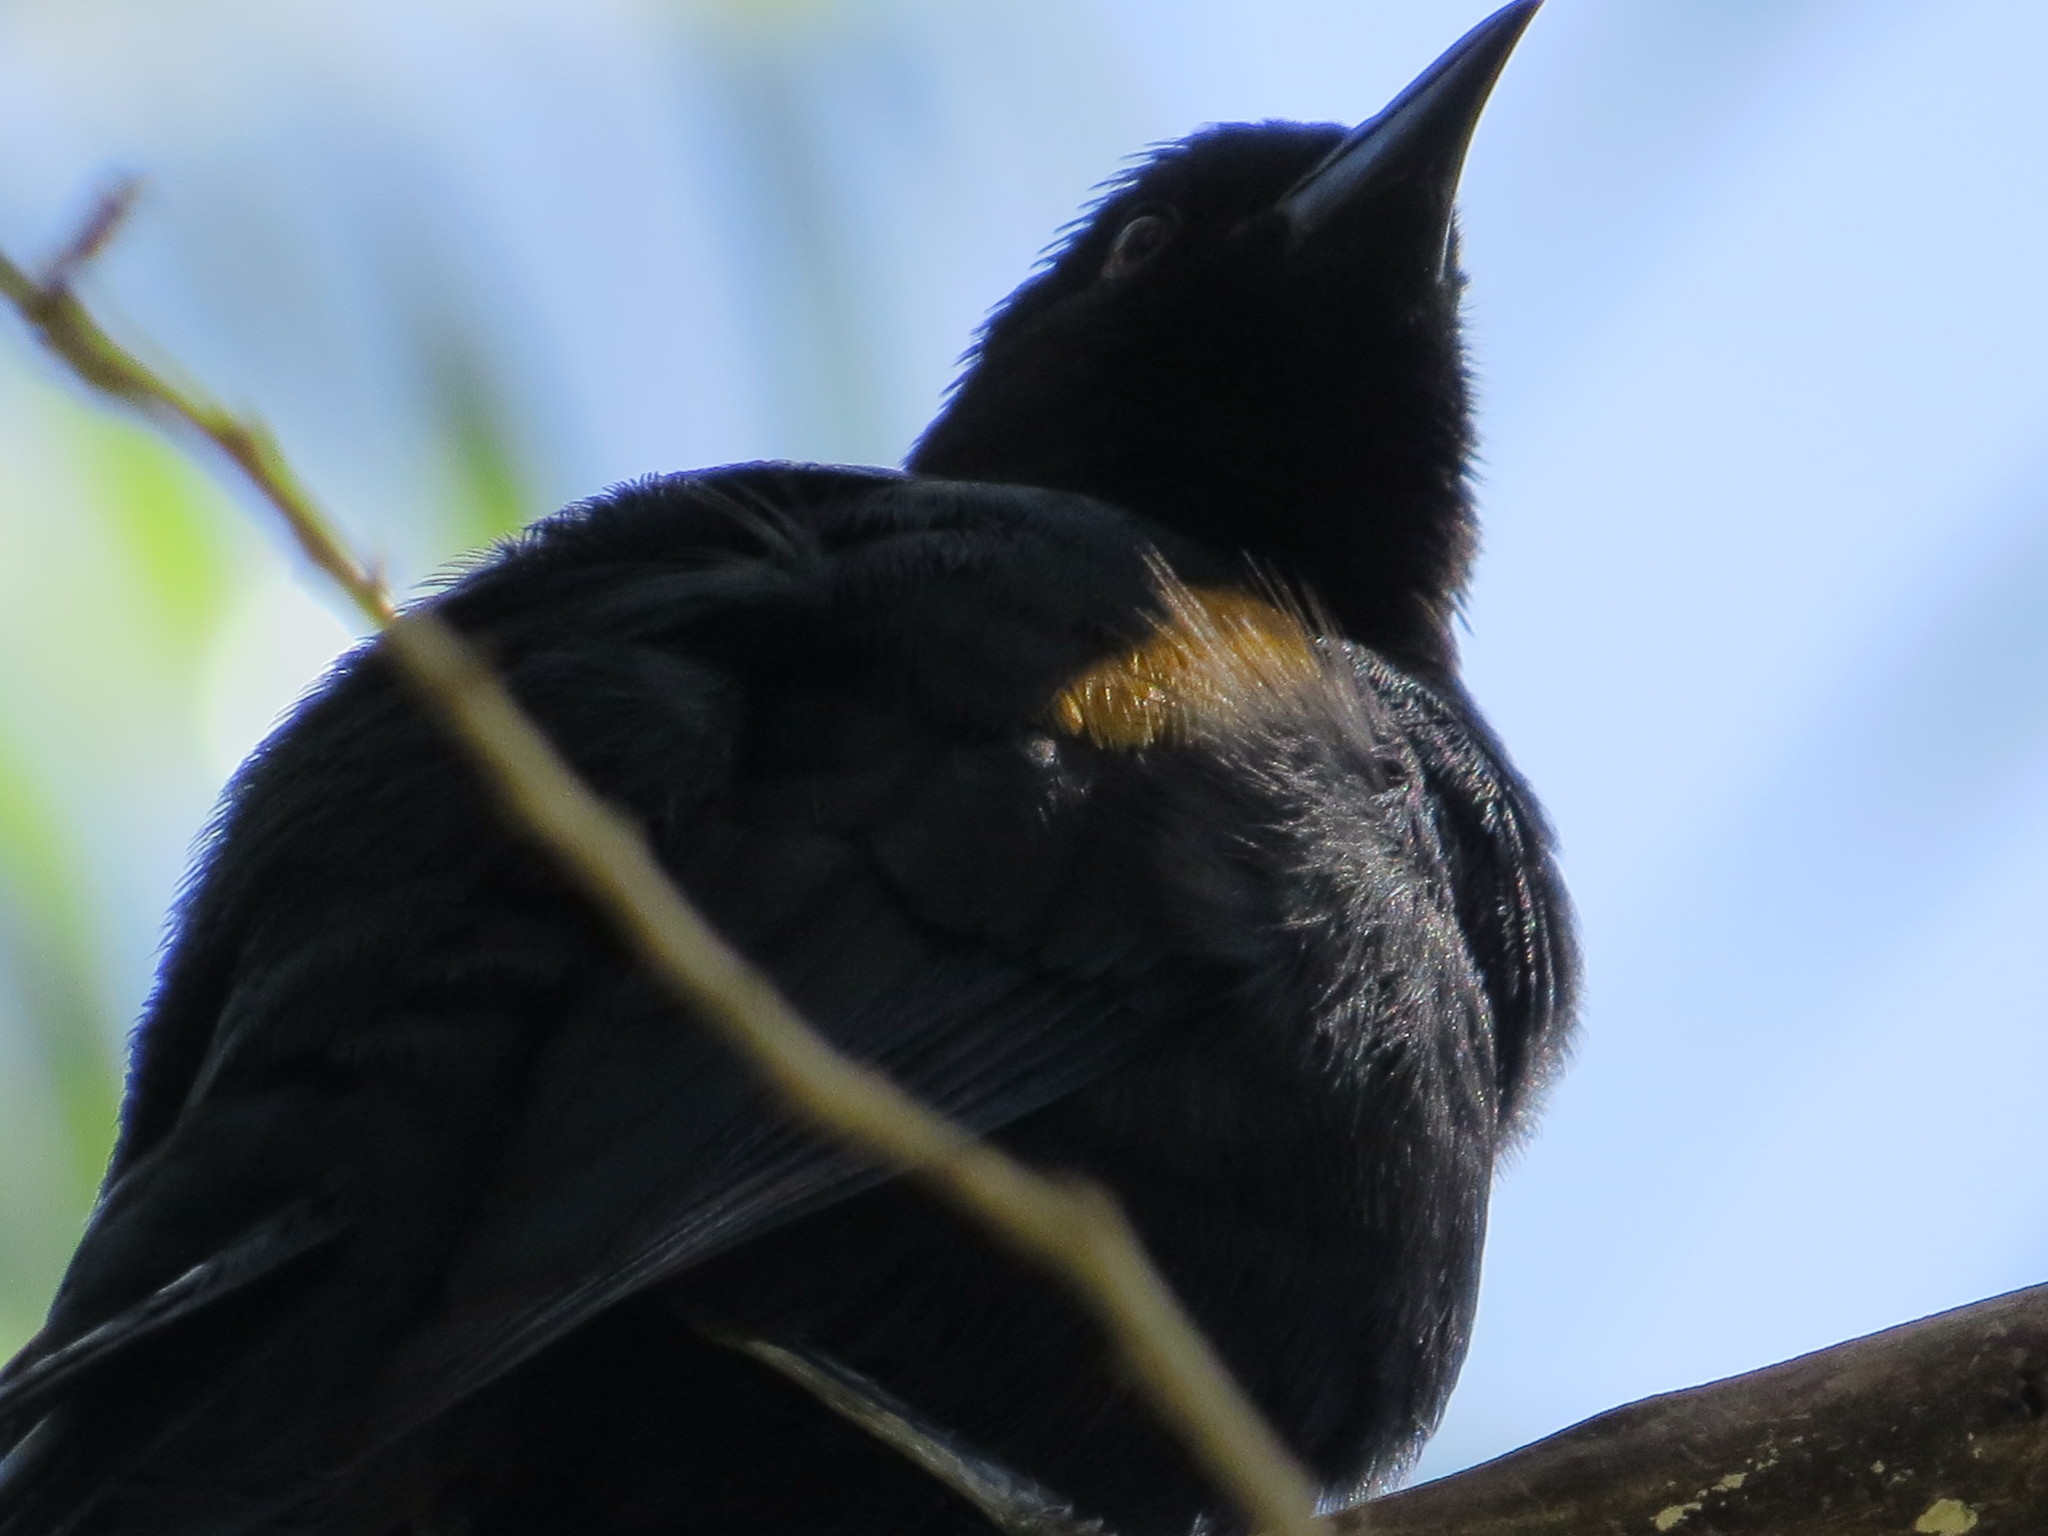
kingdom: Animalia
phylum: Chordata
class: Aves
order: Passeriformes
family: Icteridae
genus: Icterus
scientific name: Icterus cayanensis
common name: Epaulet oriole
